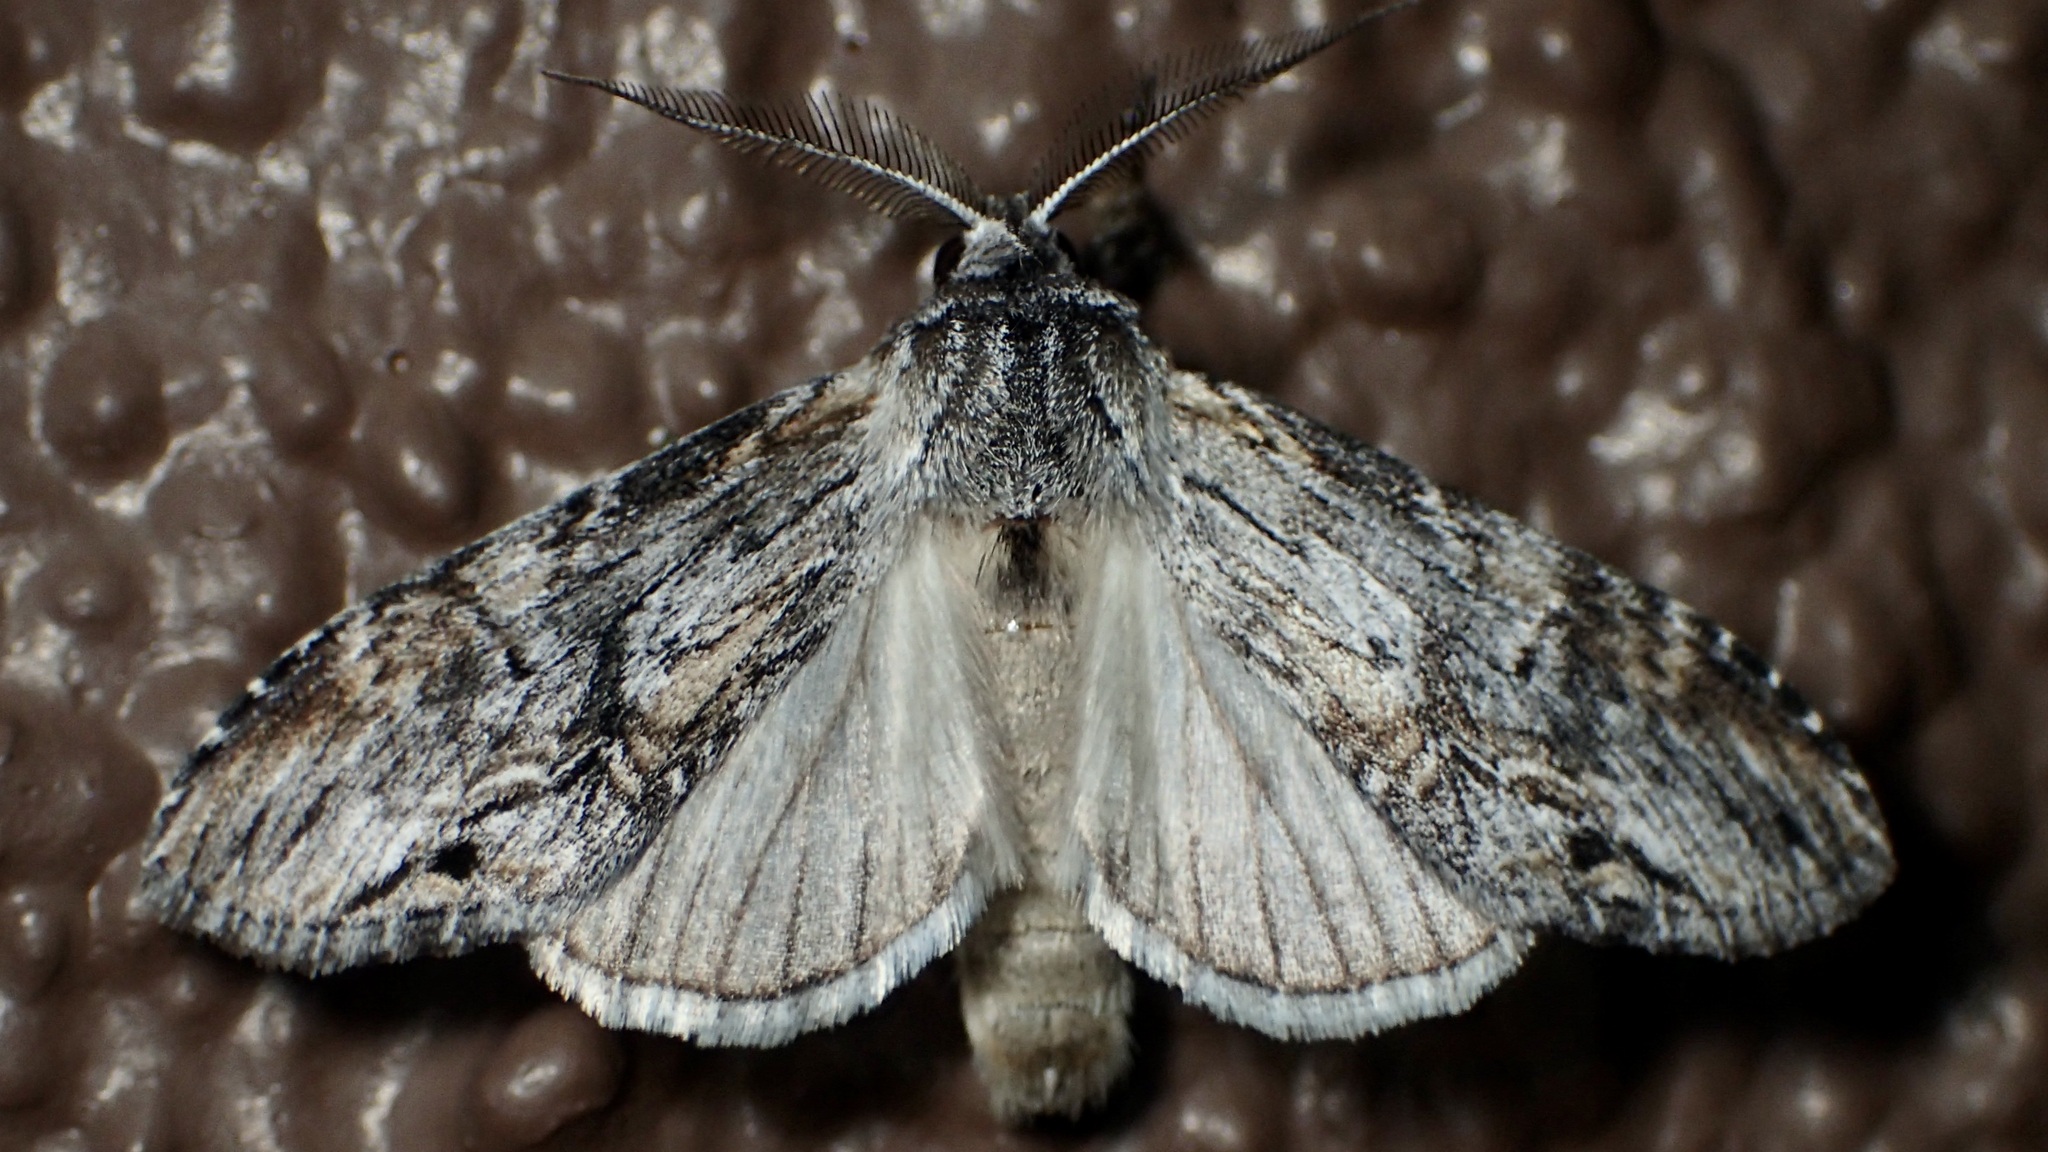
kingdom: Animalia
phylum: Arthropoda
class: Insecta
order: Lepidoptera
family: Notodontidae
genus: Notela
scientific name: Notela jaliscana
